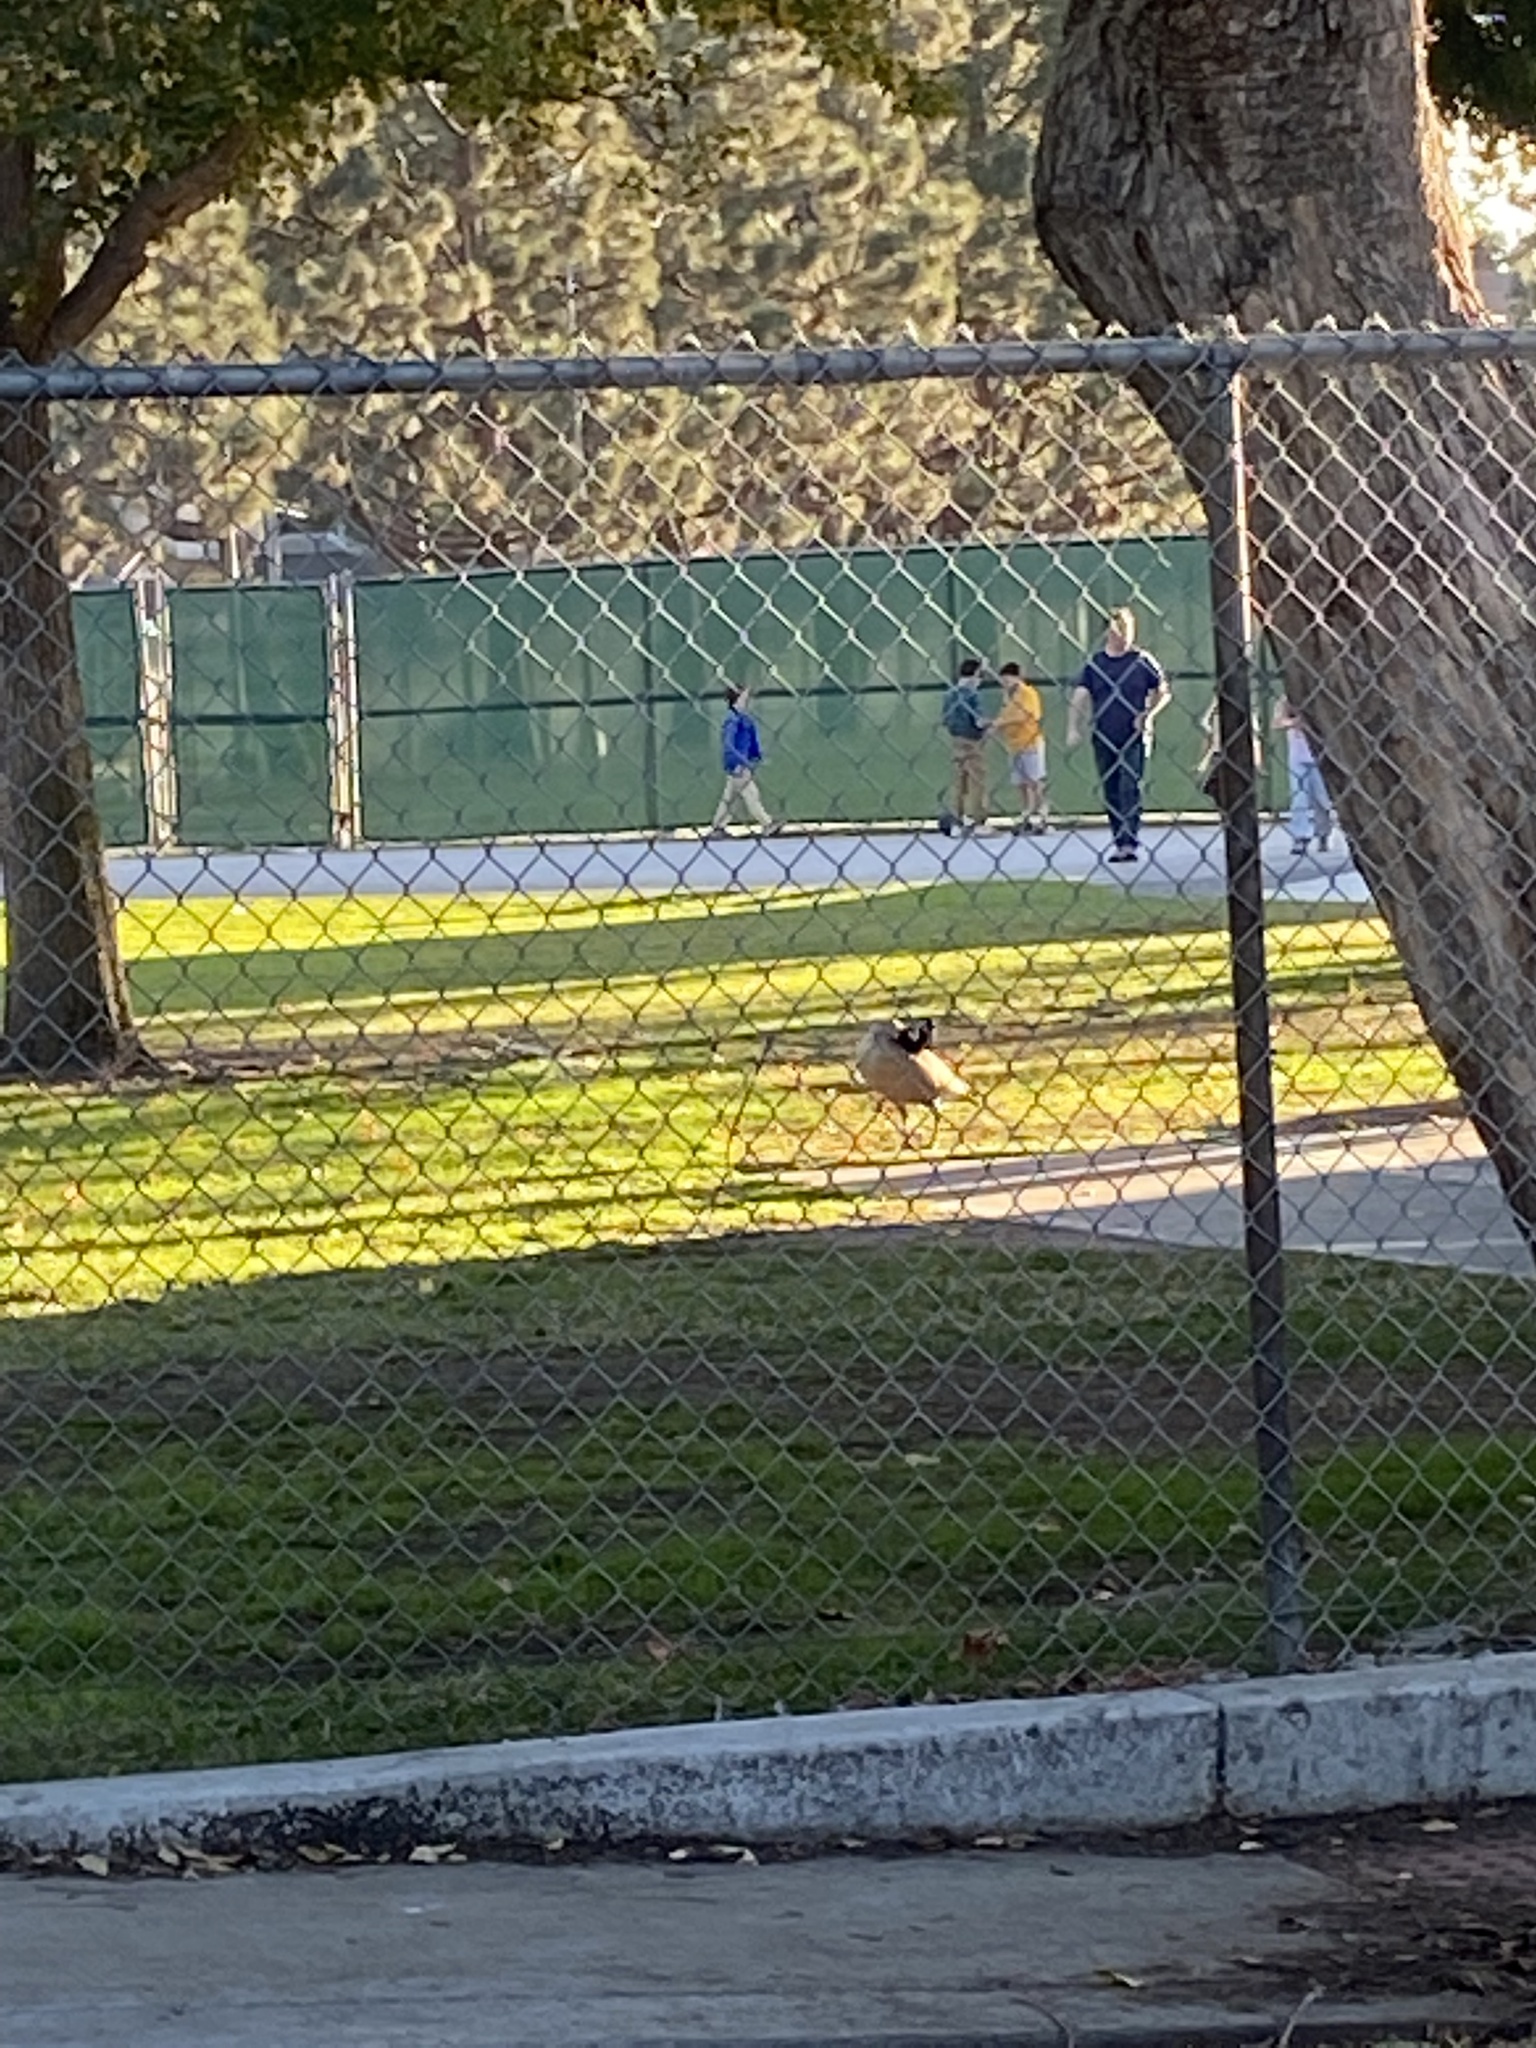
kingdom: Animalia
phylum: Chordata
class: Aves
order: Anseriformes
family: Anatidae
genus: Branta
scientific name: Branta canadensis
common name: Canada goose
